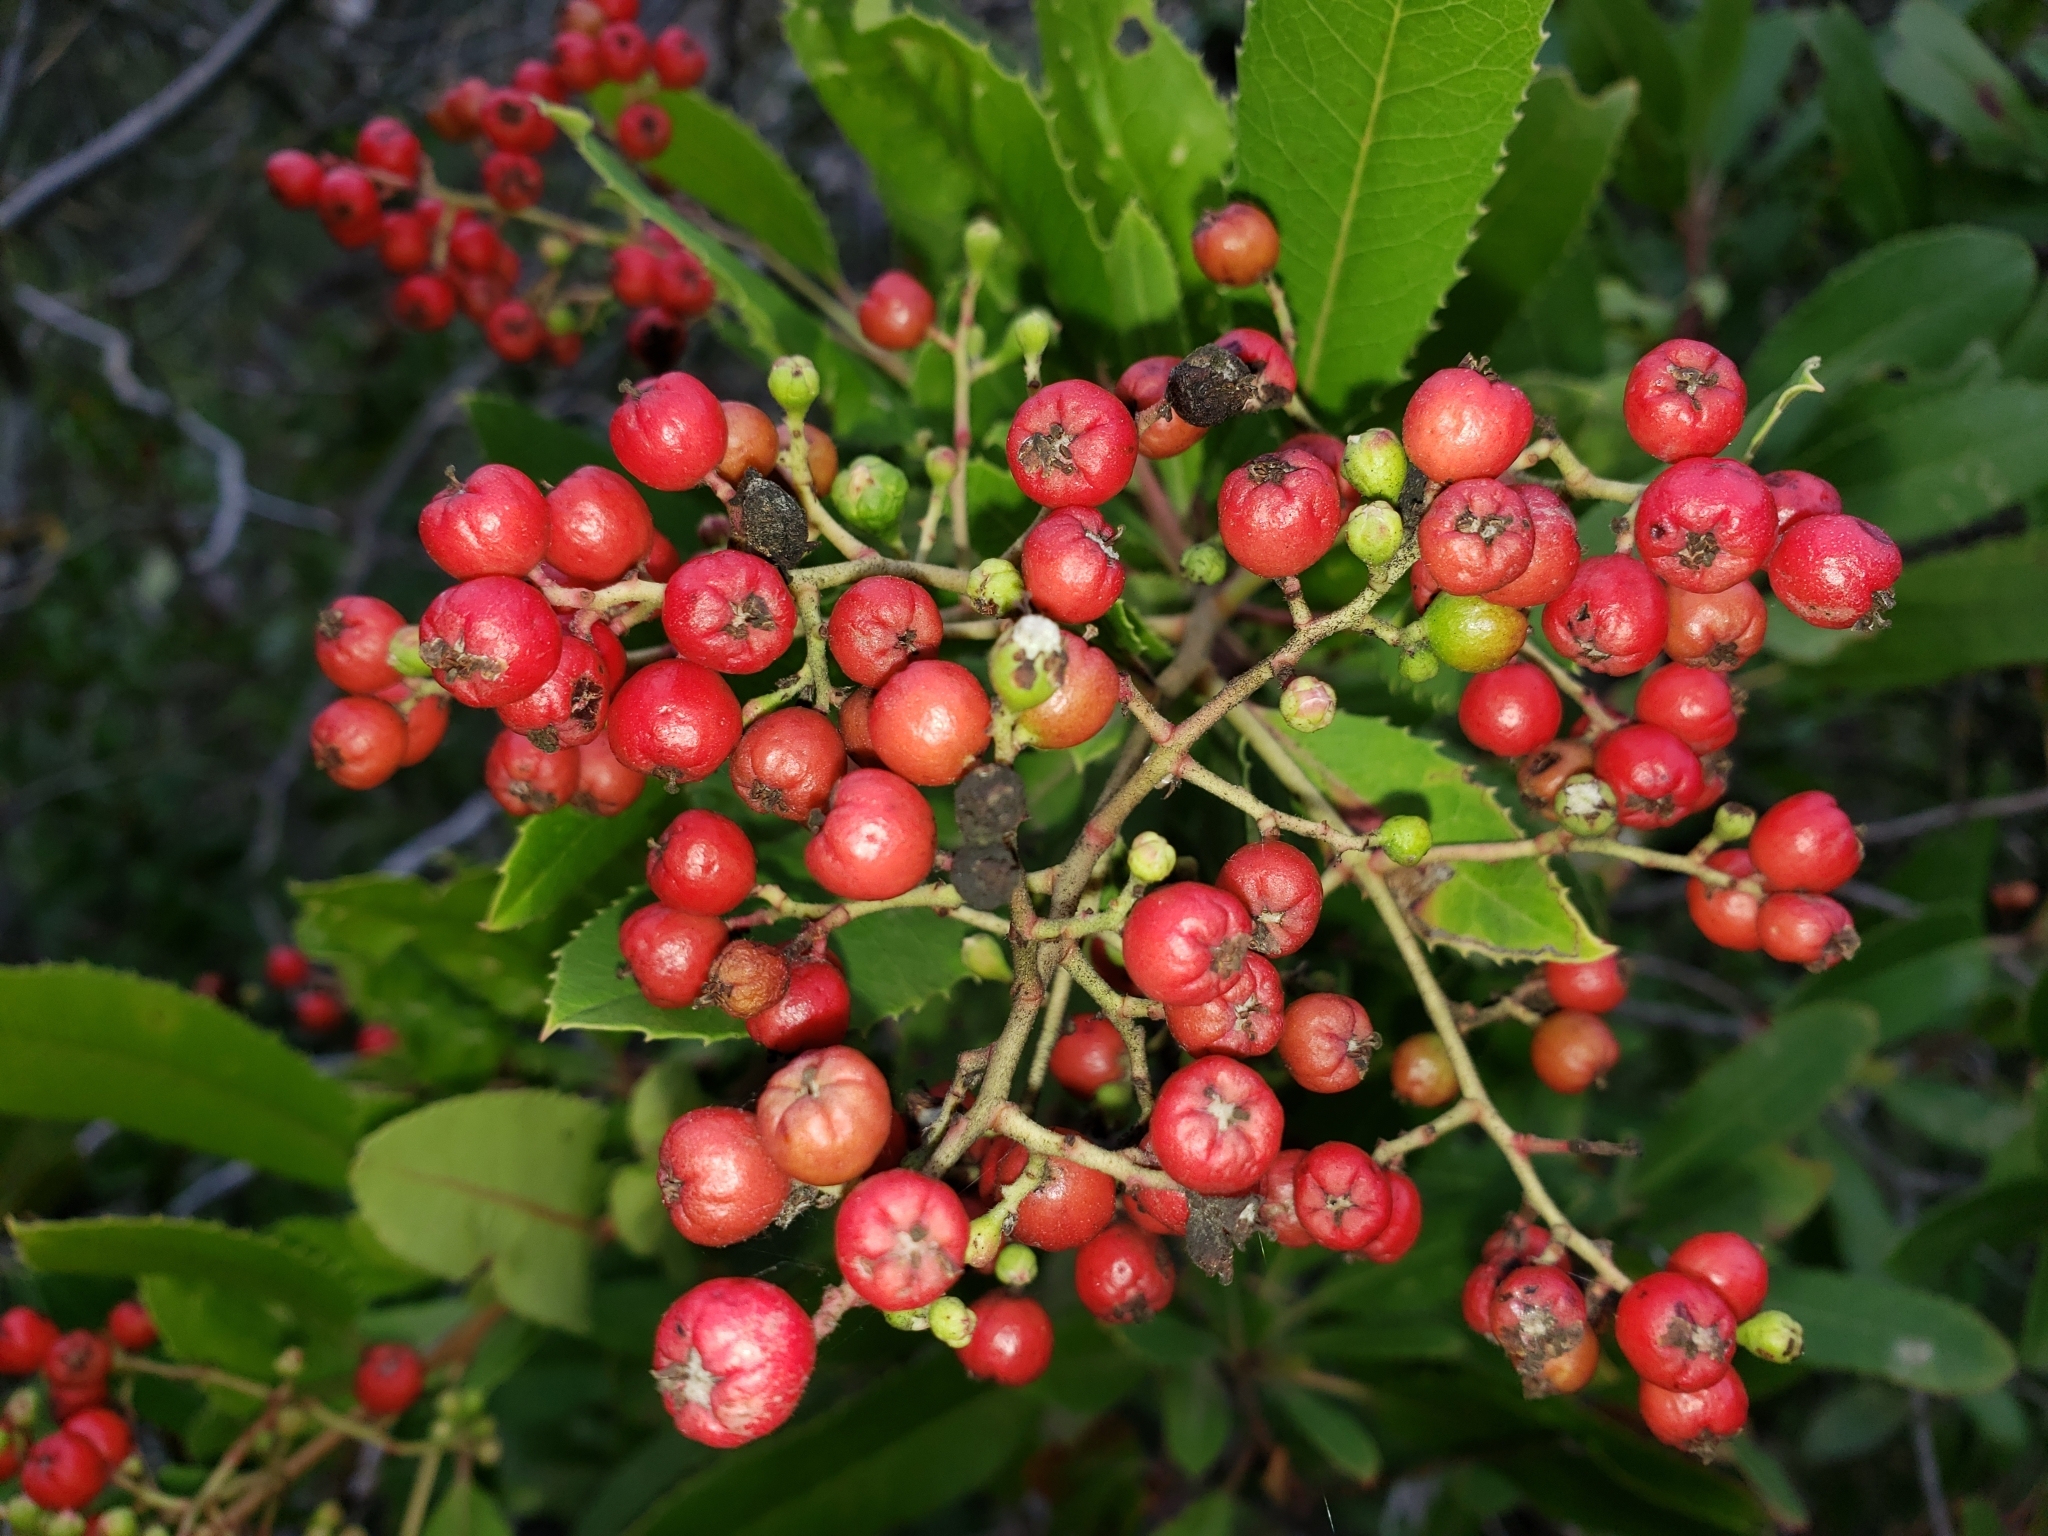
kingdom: Plantae
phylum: Tracheophyta
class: Magnoliopsida
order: Rosales
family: Rosaceae
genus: Heteromeles
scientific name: Heteromeles arbutifolia
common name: California-holly
